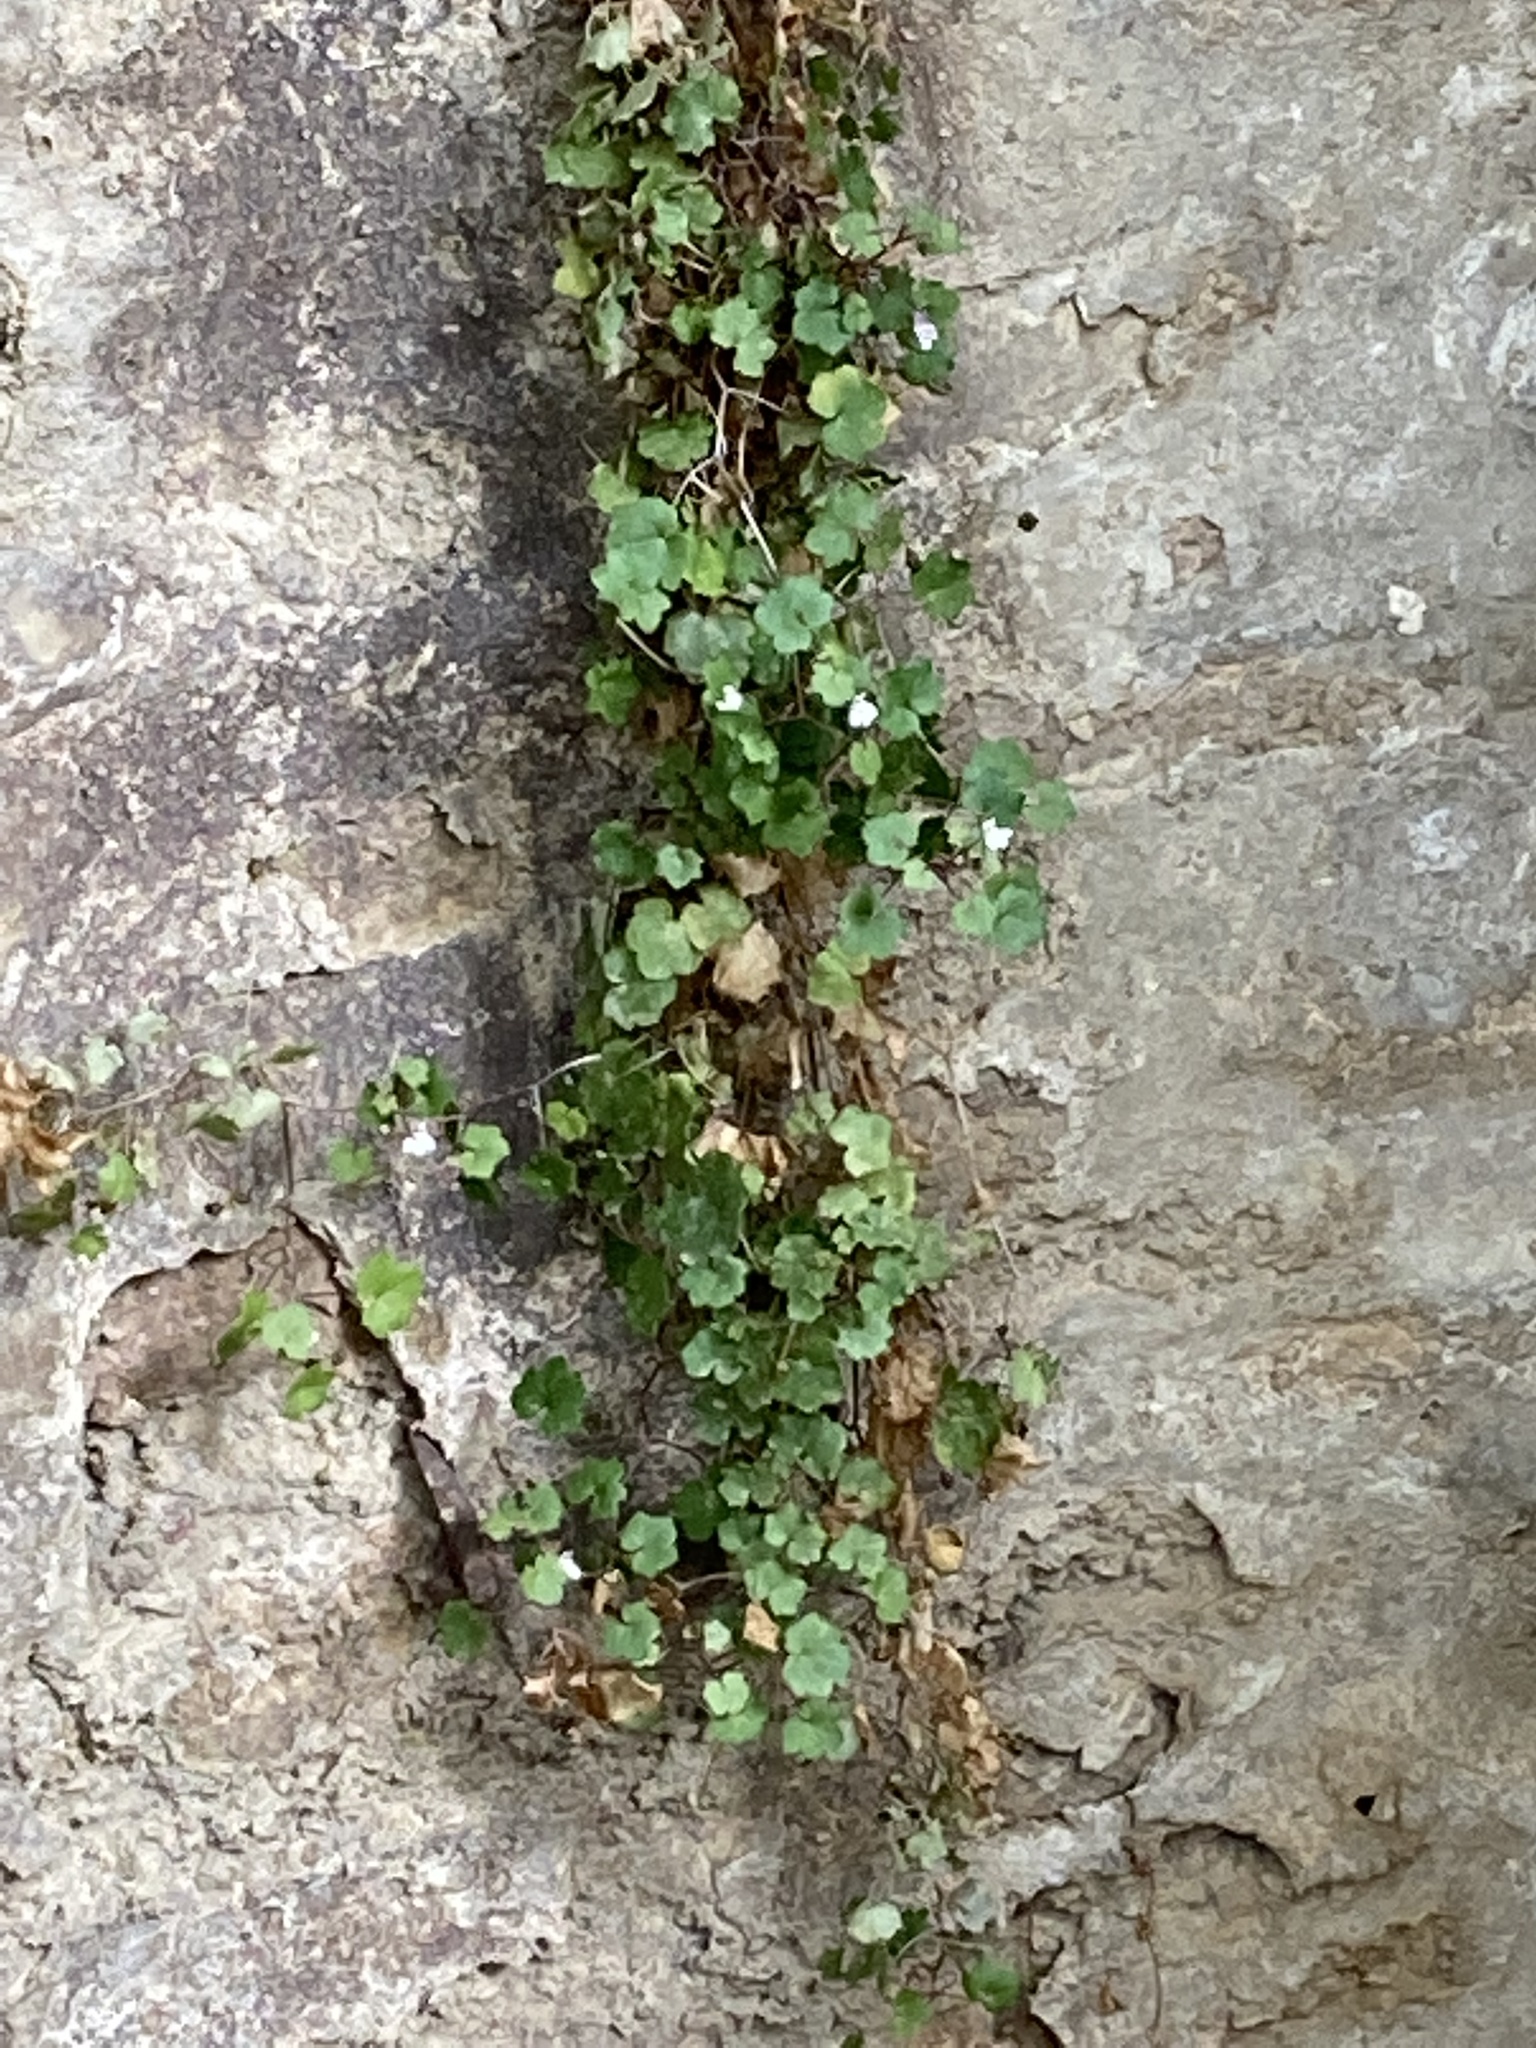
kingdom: Plantae
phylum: Tracheophyta
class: Magnoliopsida
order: Lamiales
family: Plantaginaceae
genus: Cymbalaria
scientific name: Cymbalaria muralis
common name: Ivy-leaved toadflax
